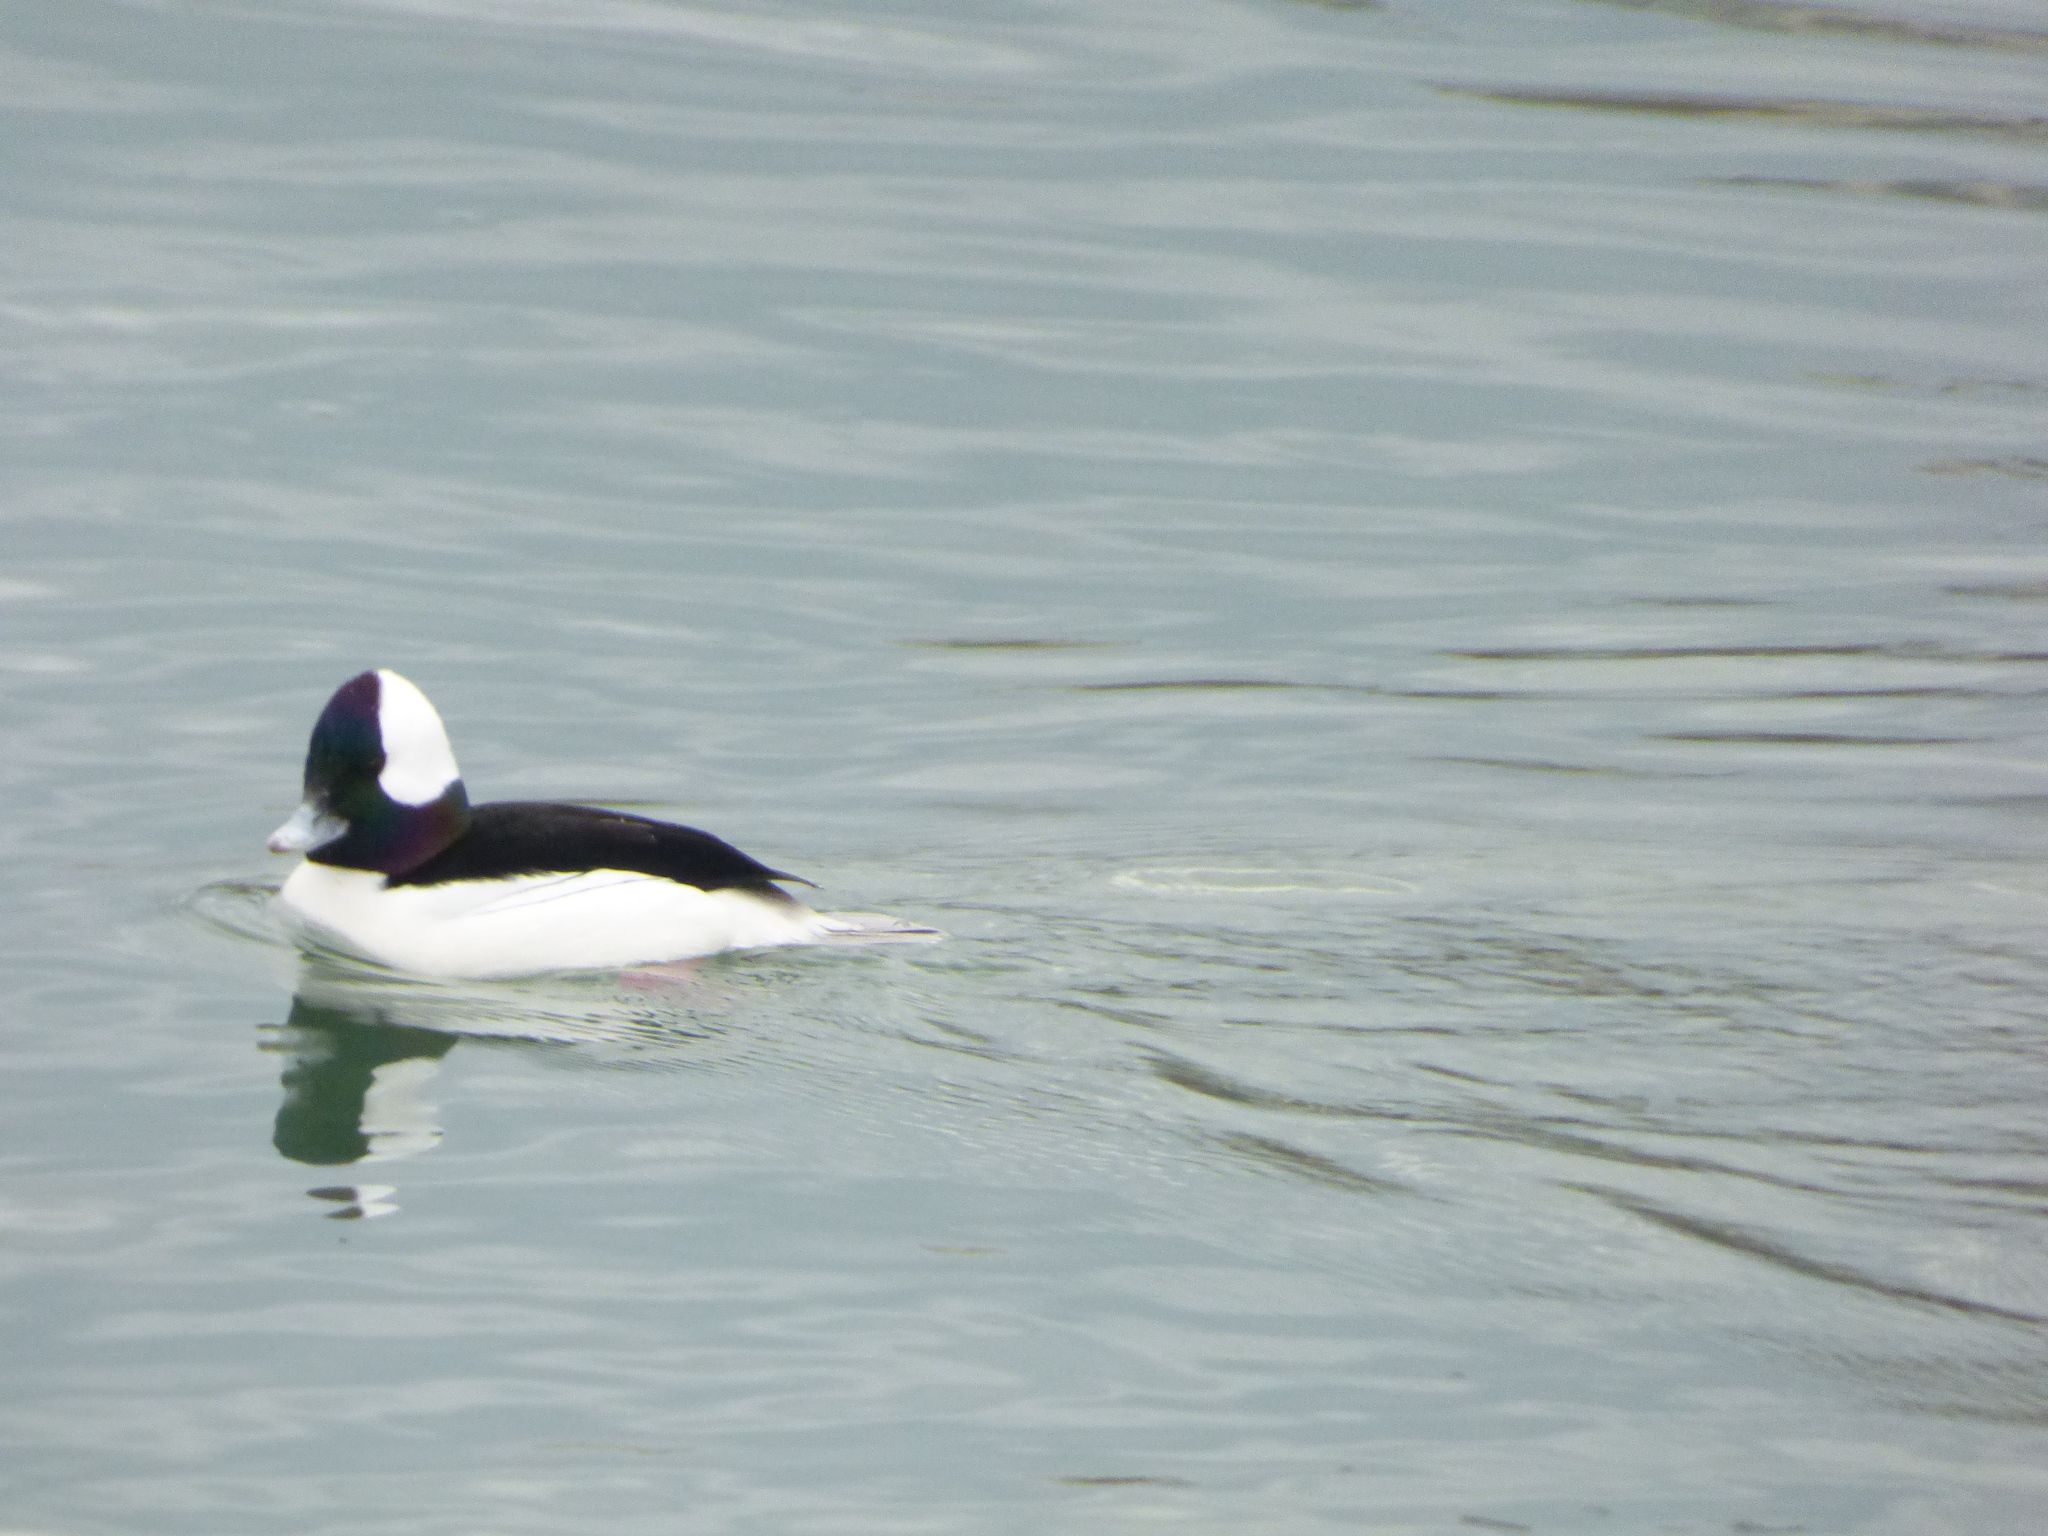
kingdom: Animalia
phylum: Chordata
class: Aves
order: Anseriformes
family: Anatidae
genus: Bucephala
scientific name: Bucephala albeola
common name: Bufflehead
